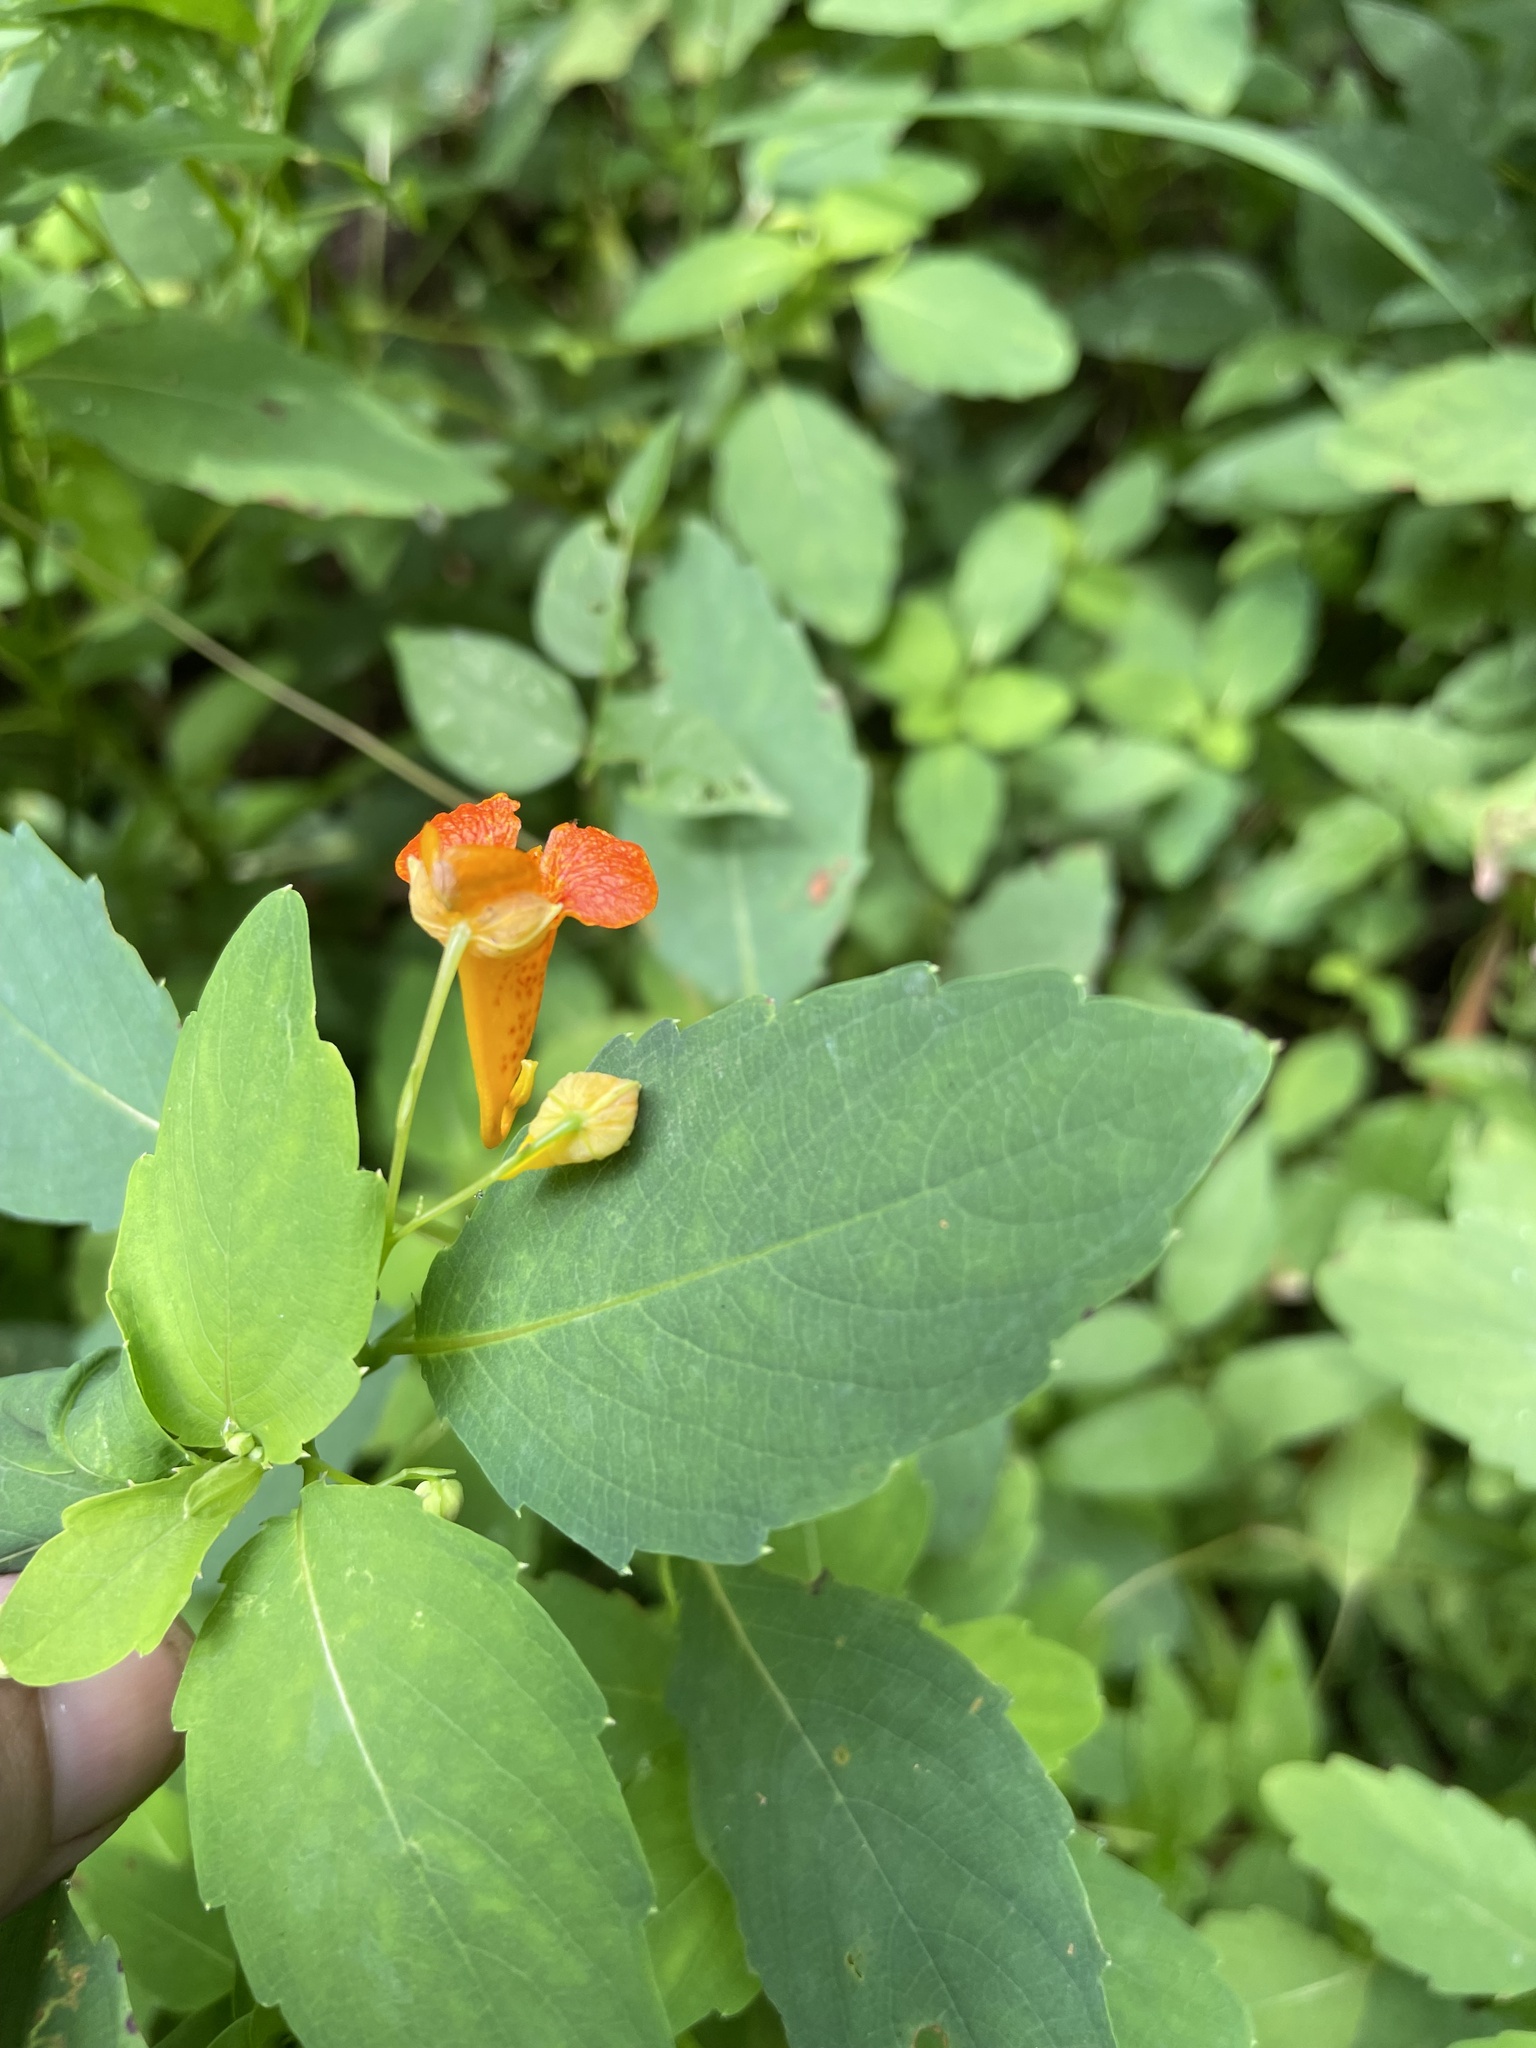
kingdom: Plantae
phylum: Tracheophyta
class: Magnoliopsida
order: Ericales
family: Balsaminaceae
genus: Impatiens
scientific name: Impatiens capensis
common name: Orange balsam
